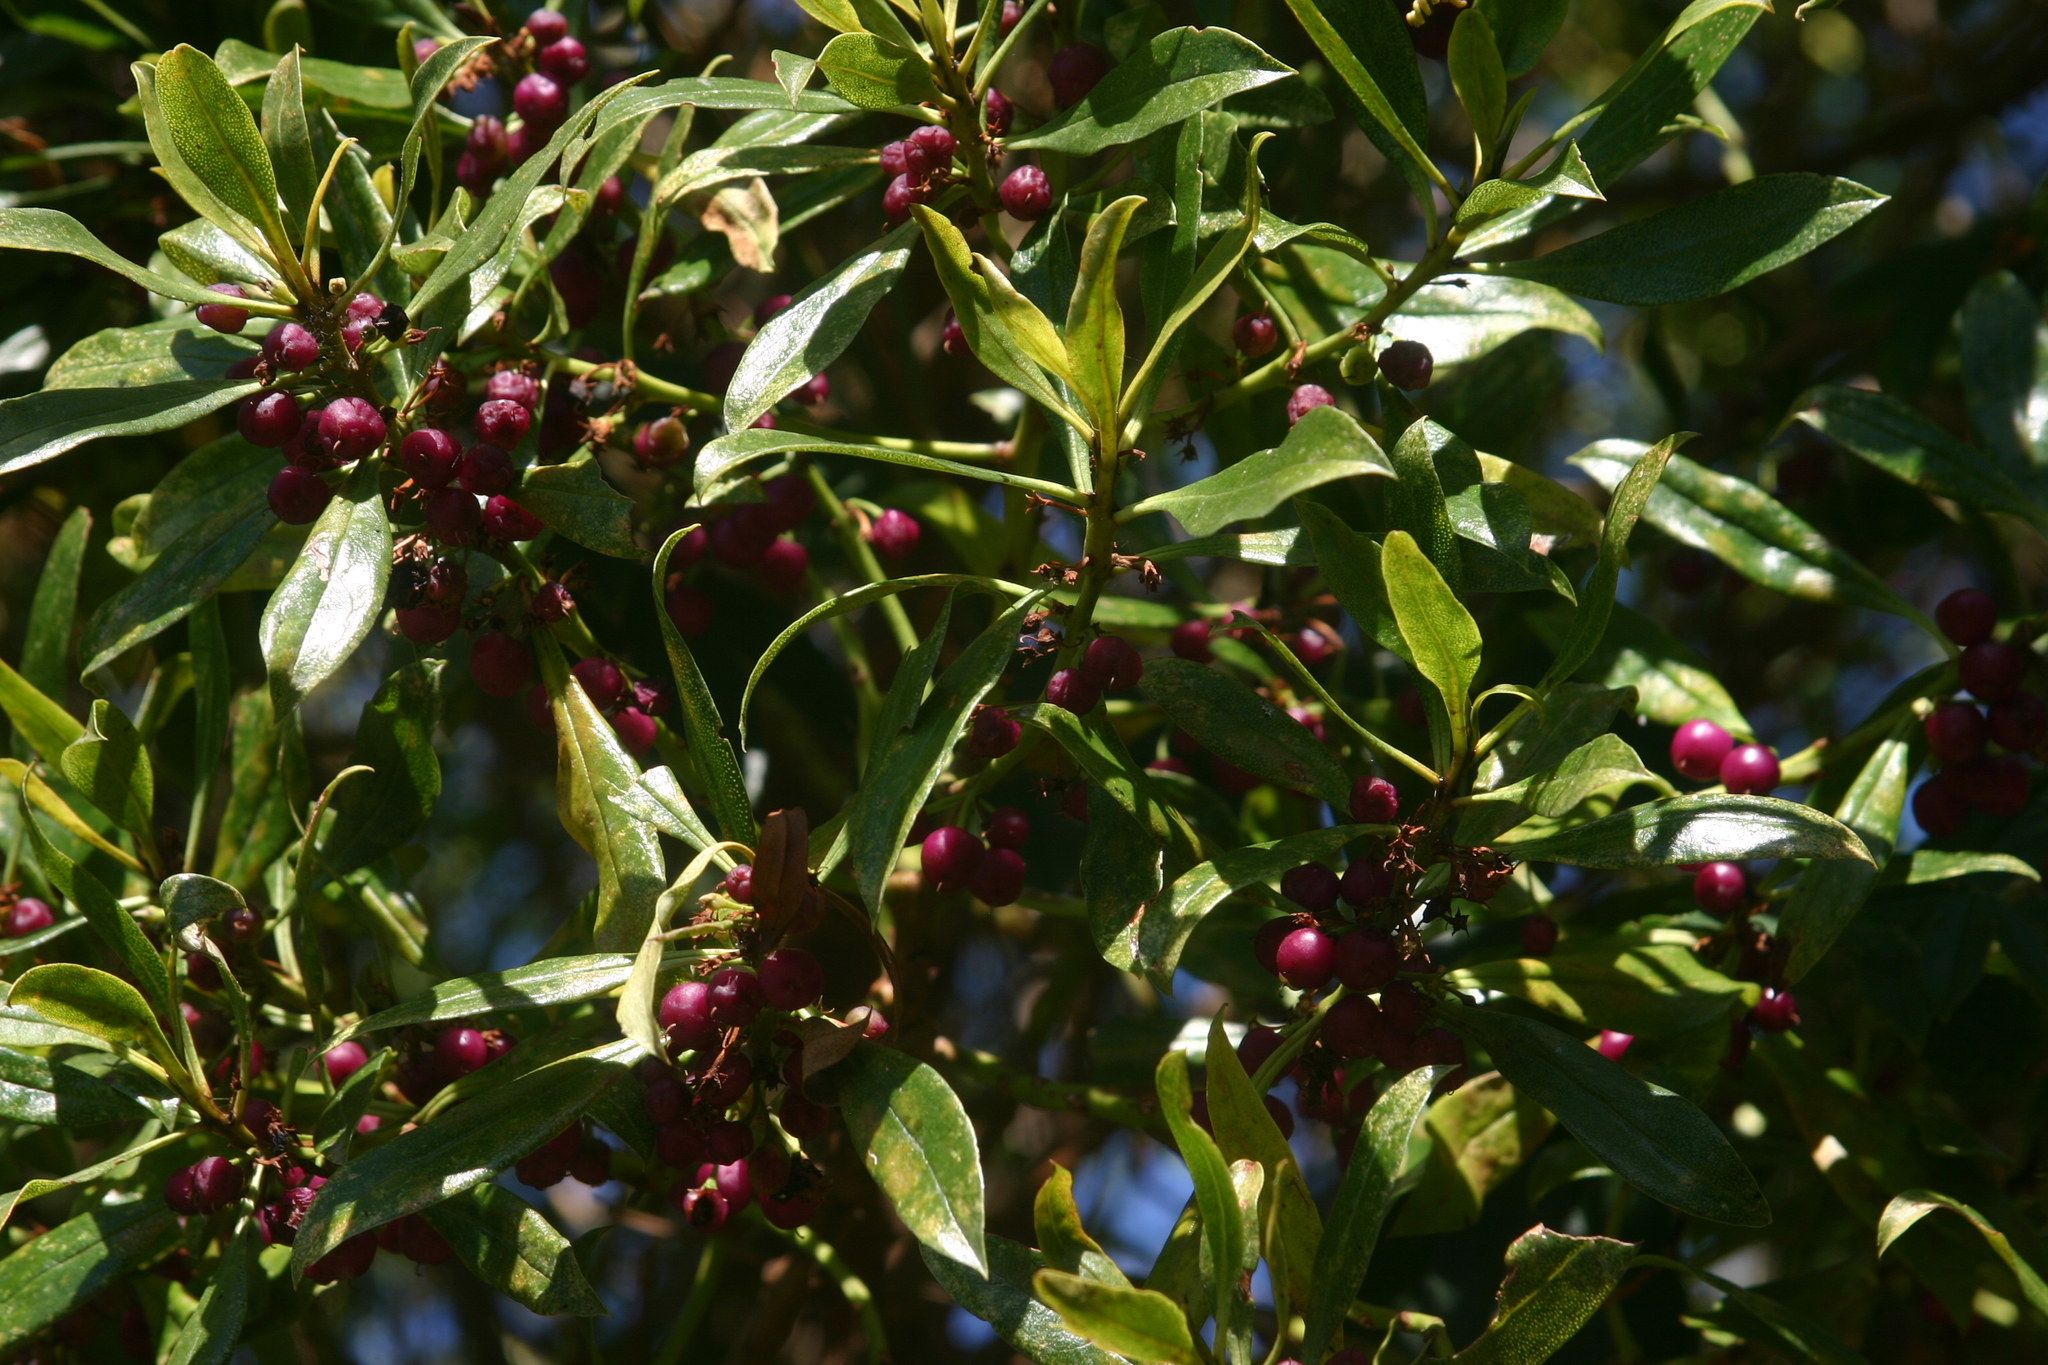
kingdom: Plantae
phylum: Tracheophyta
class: Magnoliopsida
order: Lamiales
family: Scrophulariaceae
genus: Myoporum
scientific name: Myoporum laetum
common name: Ngaio tree
